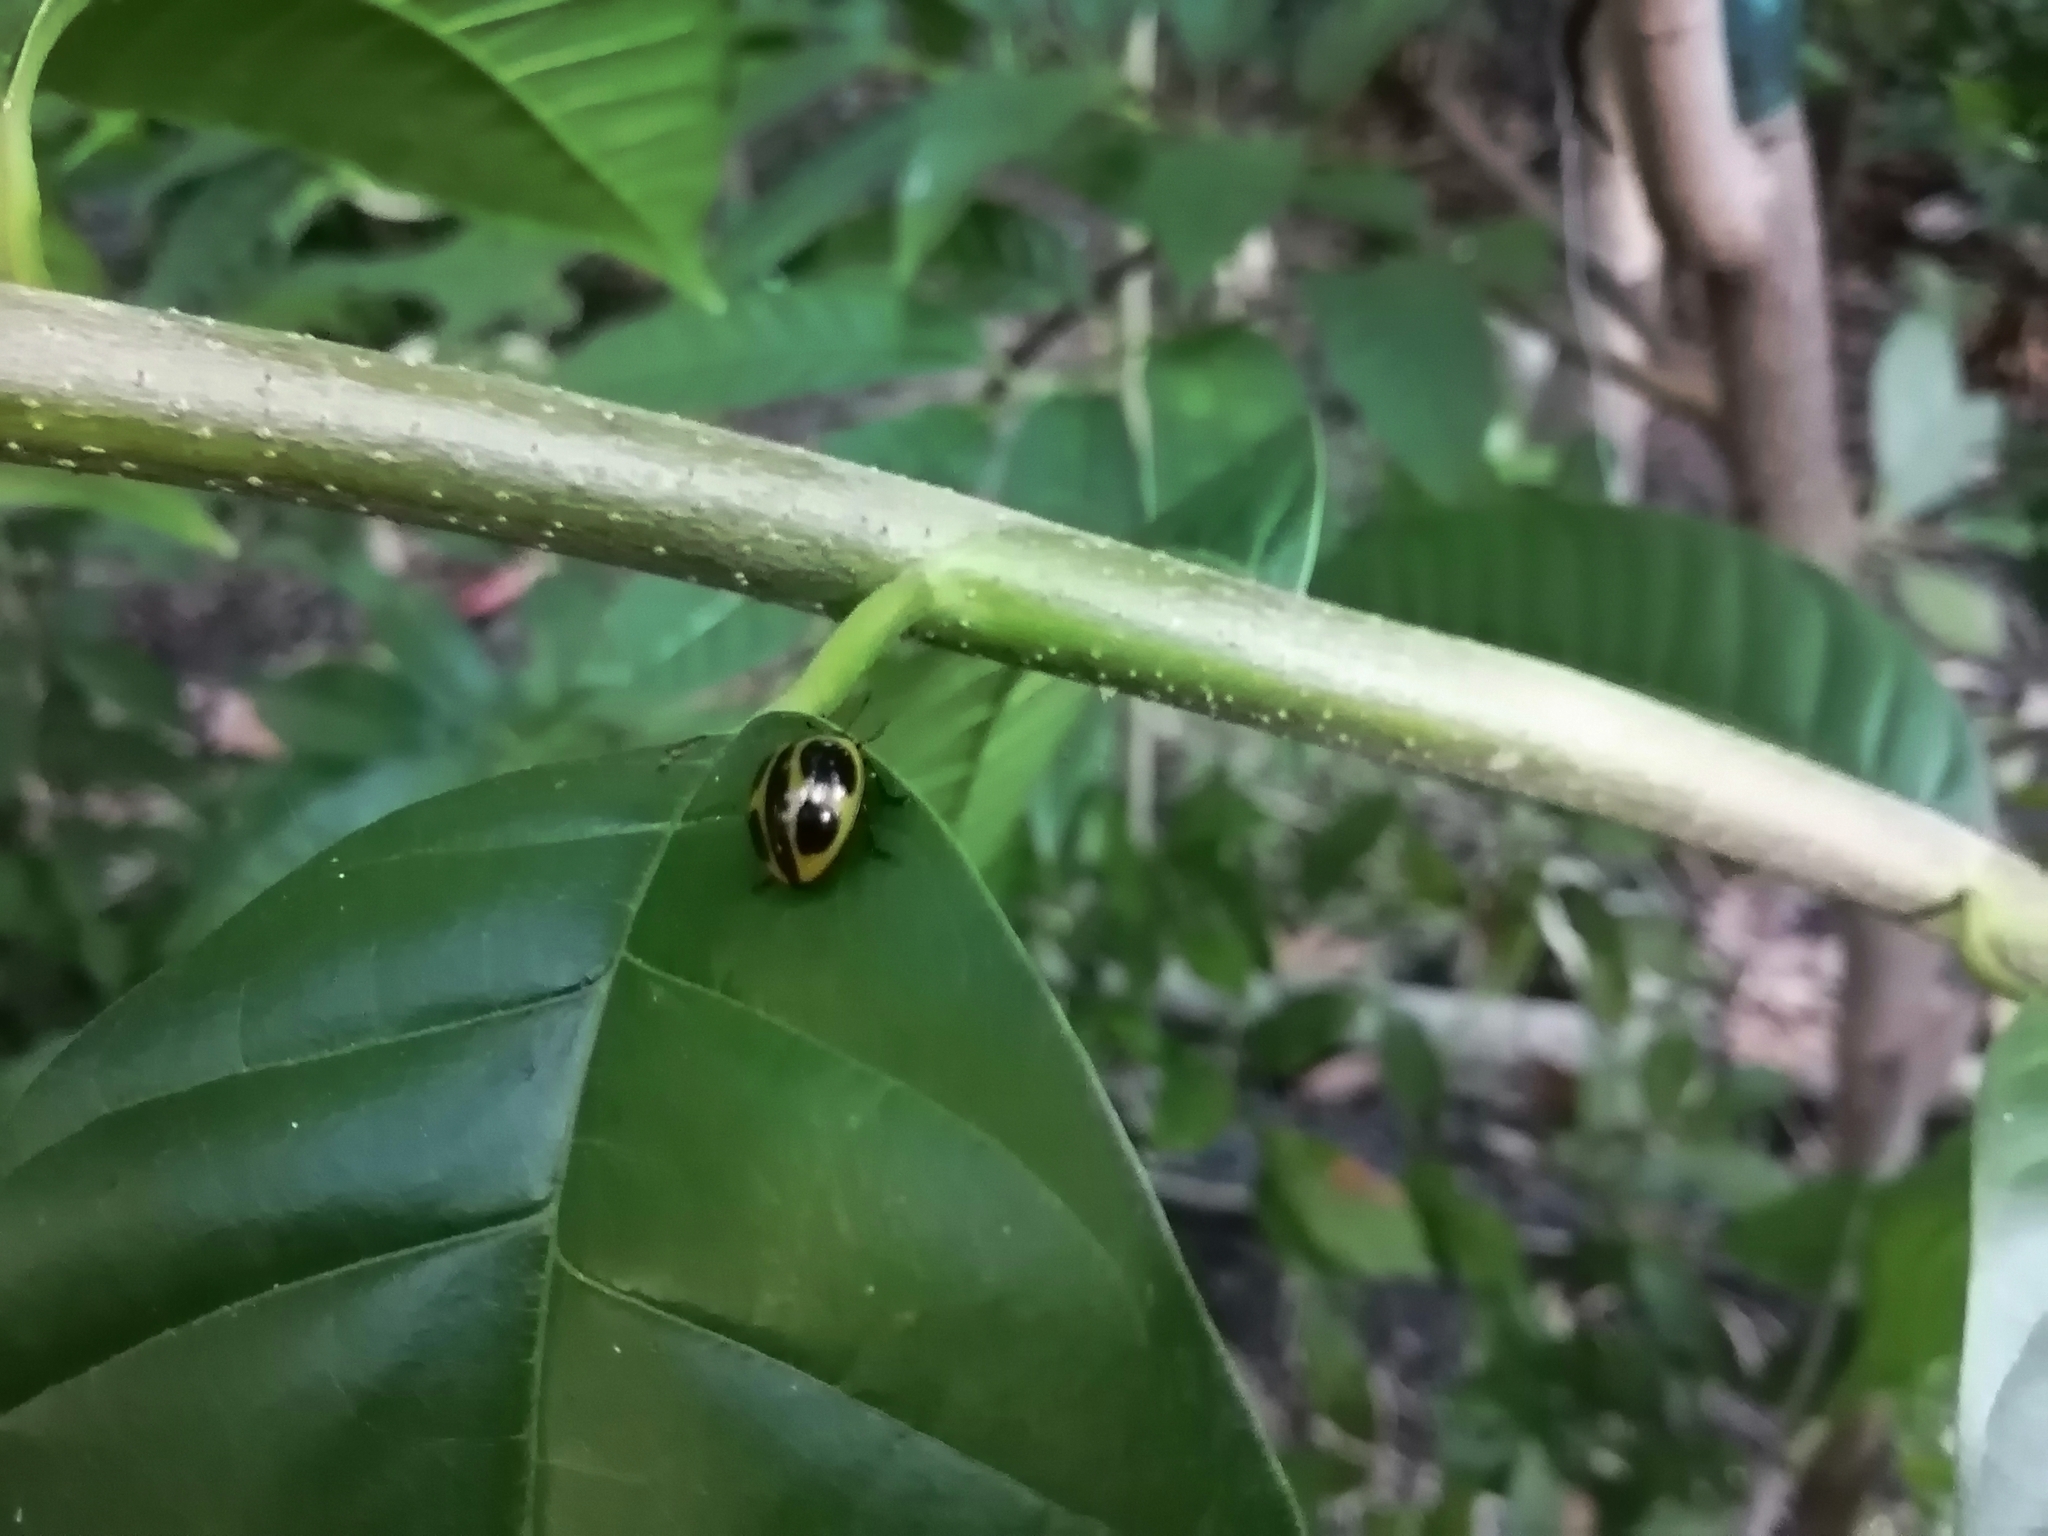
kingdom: Animalia
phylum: Arthropoda
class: Insecta
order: Coleoptera
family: Erotylidae
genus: Aegithus
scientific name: Aegithus
